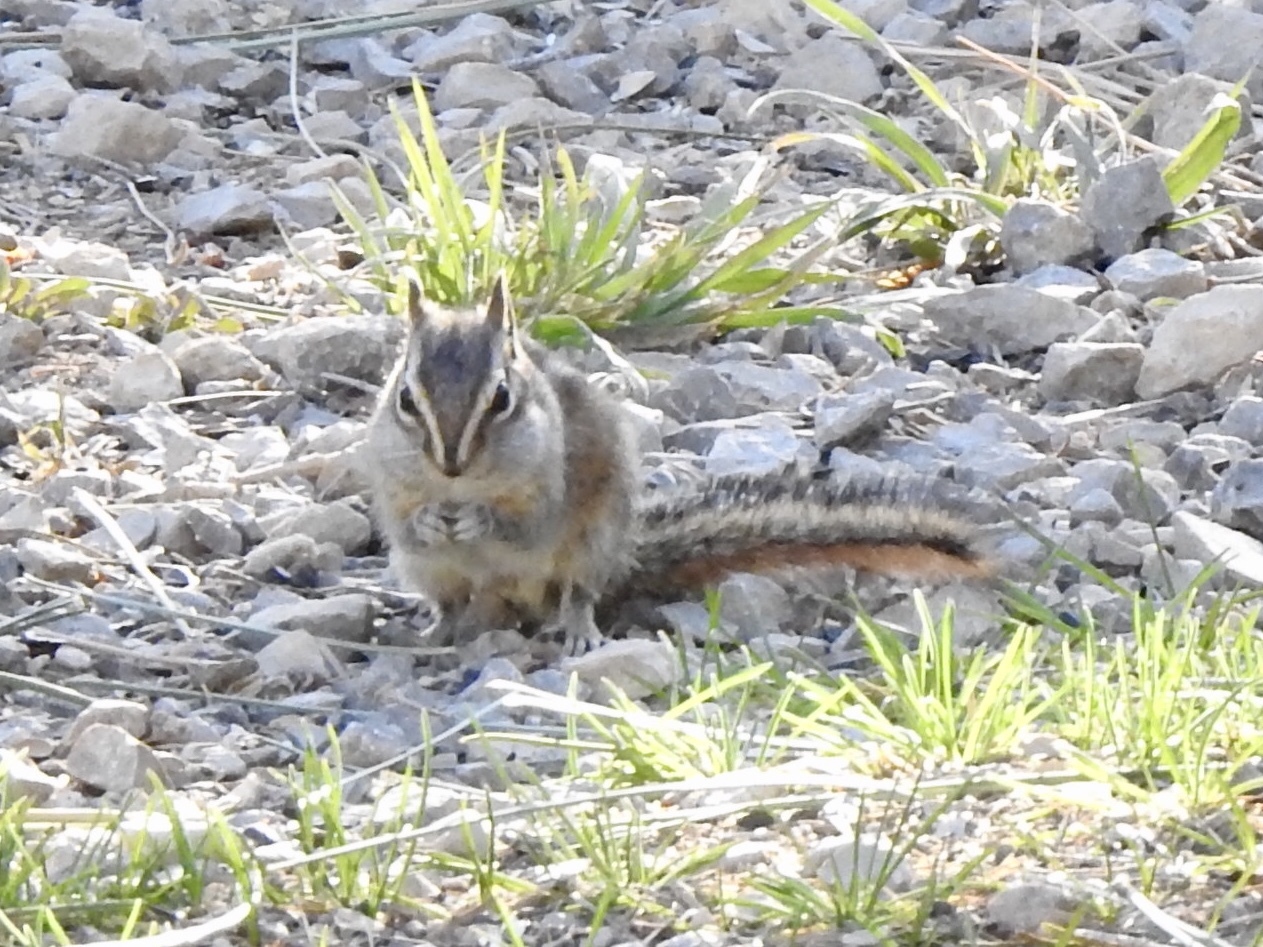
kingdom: Animalia
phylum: Chordata
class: Mammalia
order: Rodentia
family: Sciuridae
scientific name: Sciuridae
